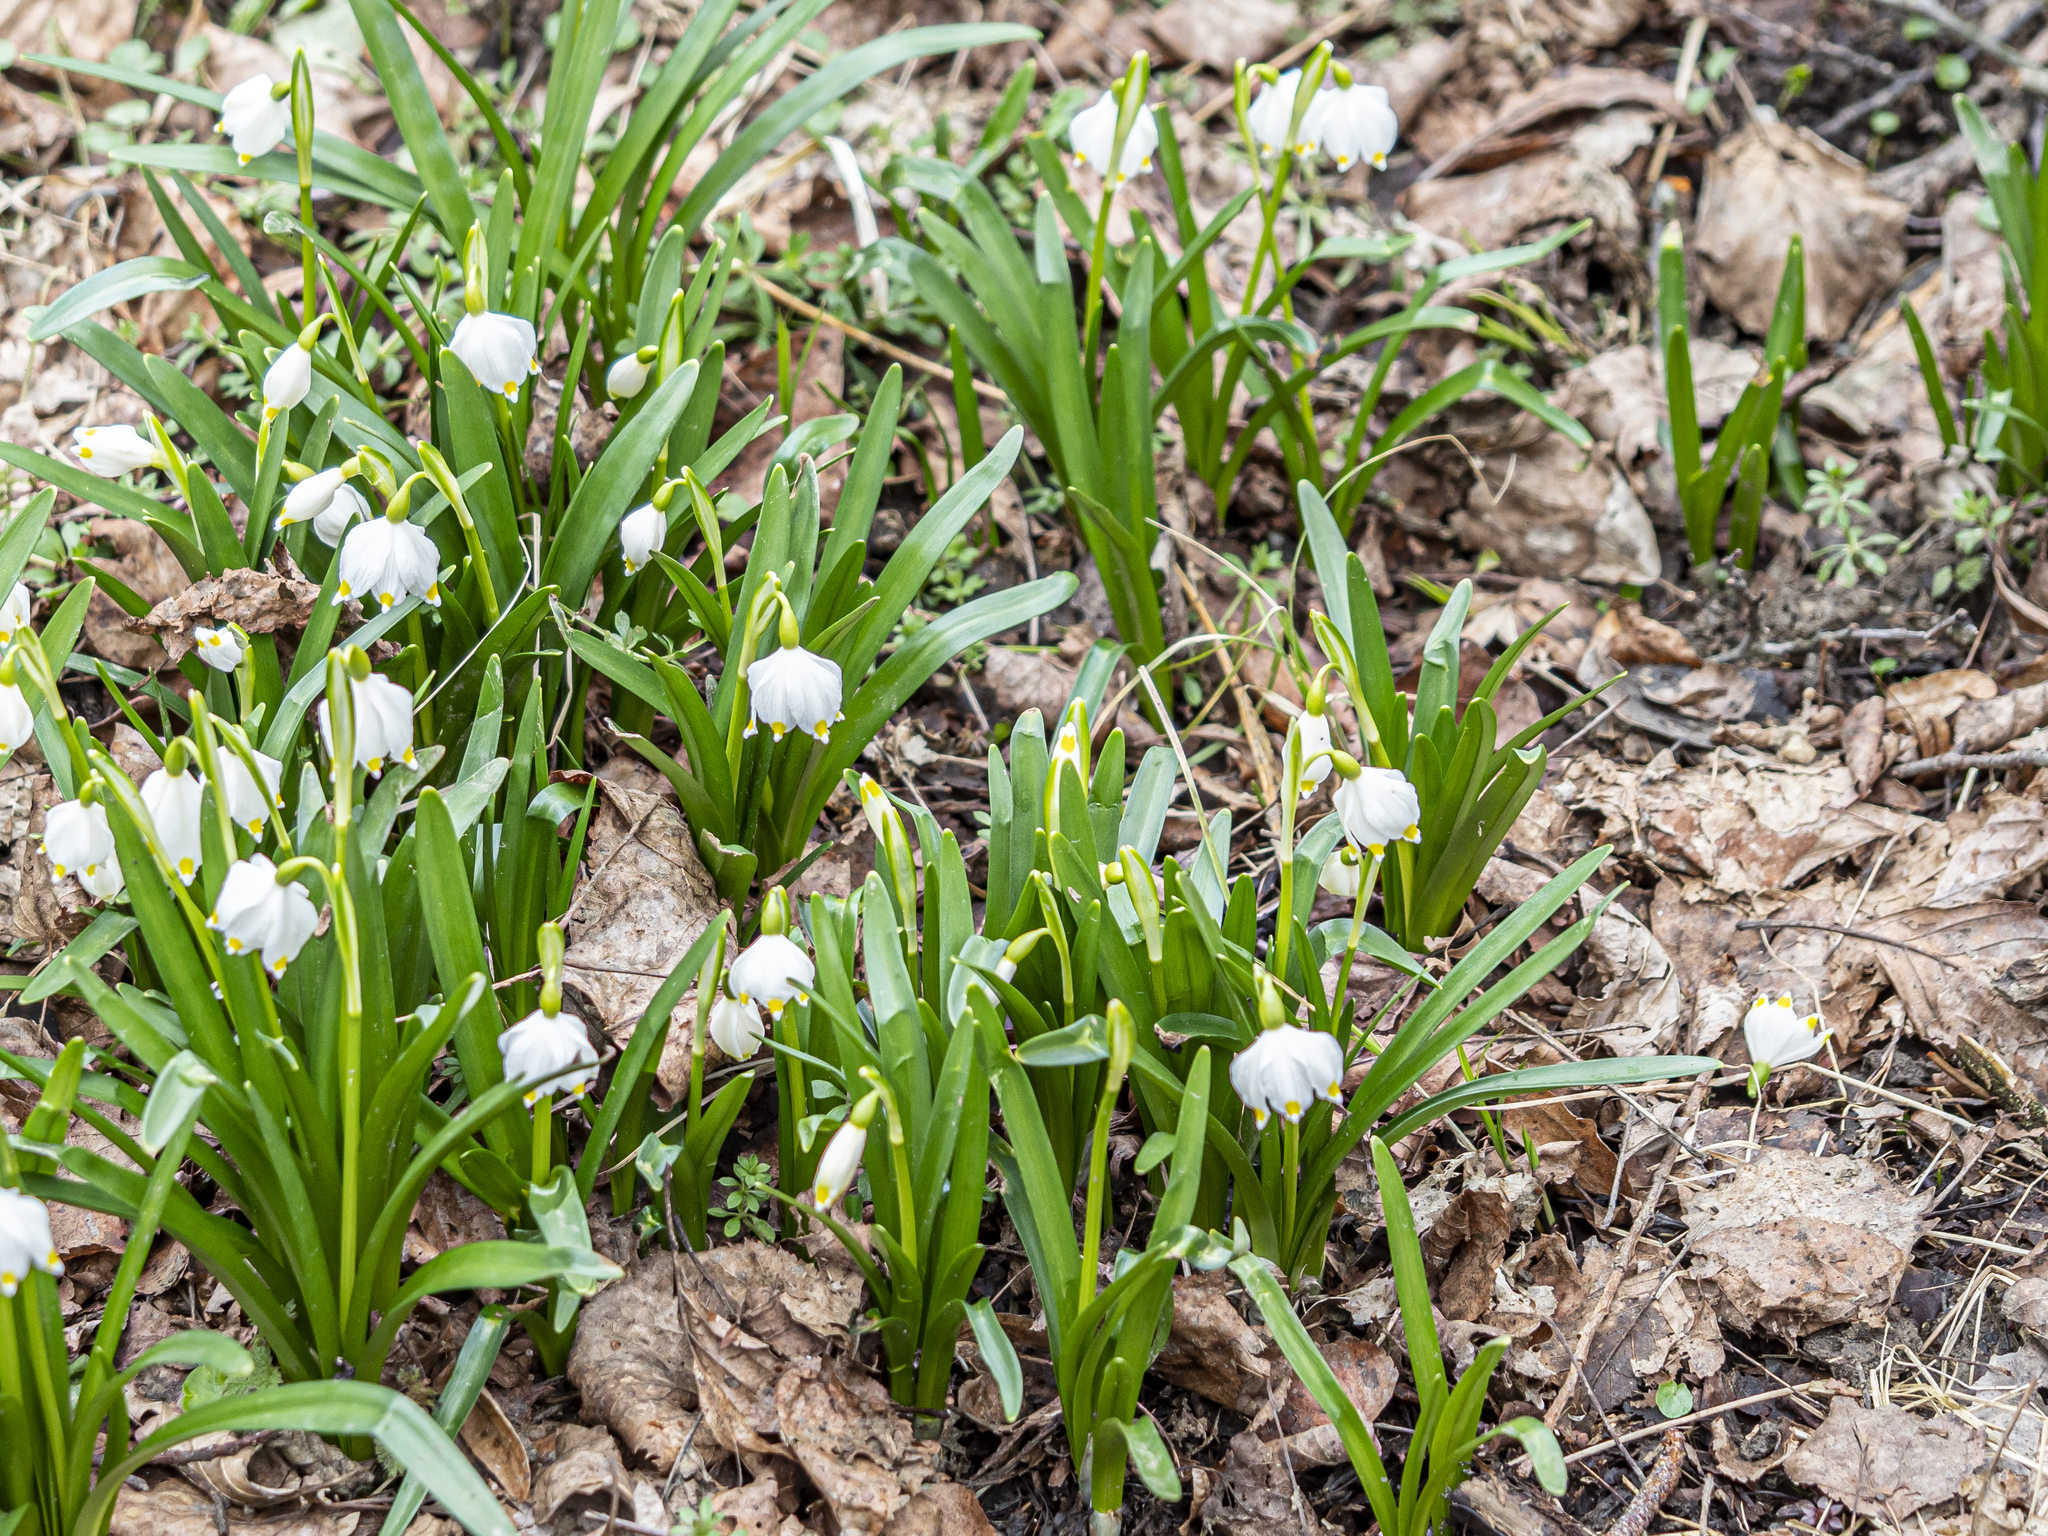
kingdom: Plantae
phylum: Tracheophyta
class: Liliopsida
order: Asparagales
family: Amaryllidaceae
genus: Leucojum
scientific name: Leucojum vernum
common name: Spring snowflake
